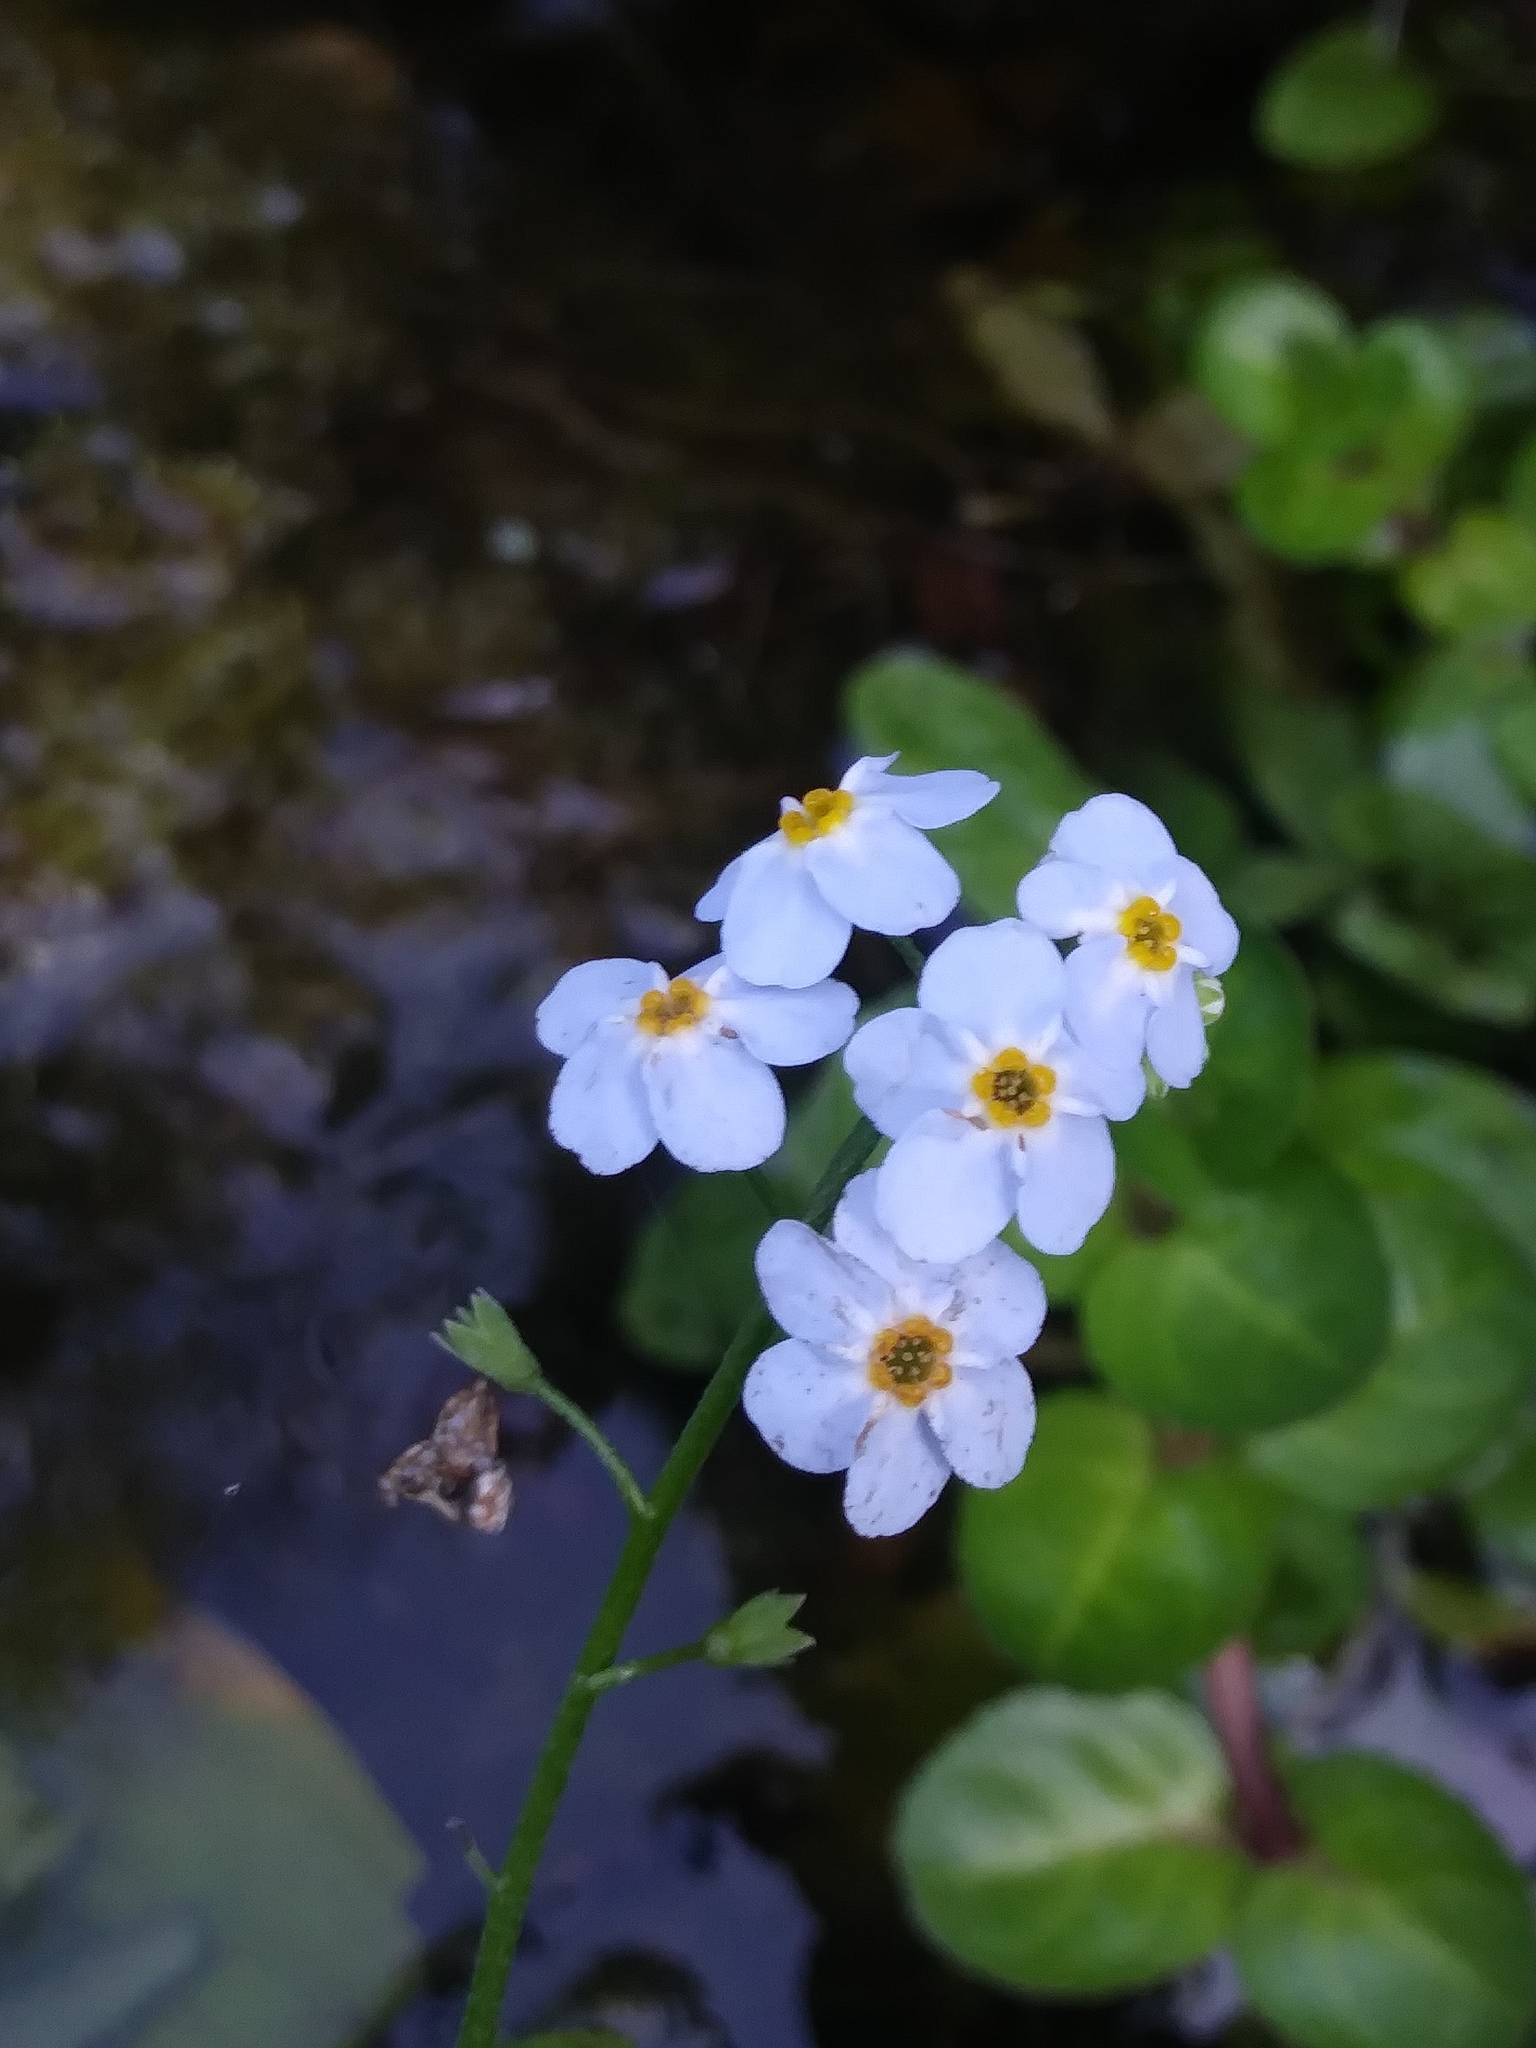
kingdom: Plantae
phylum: Tracheophyta
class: Magnoliopsida
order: Boraginales
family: Boraginaceae
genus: Myosotis
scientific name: Myosotis scorpioides
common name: Water forget-me-not
